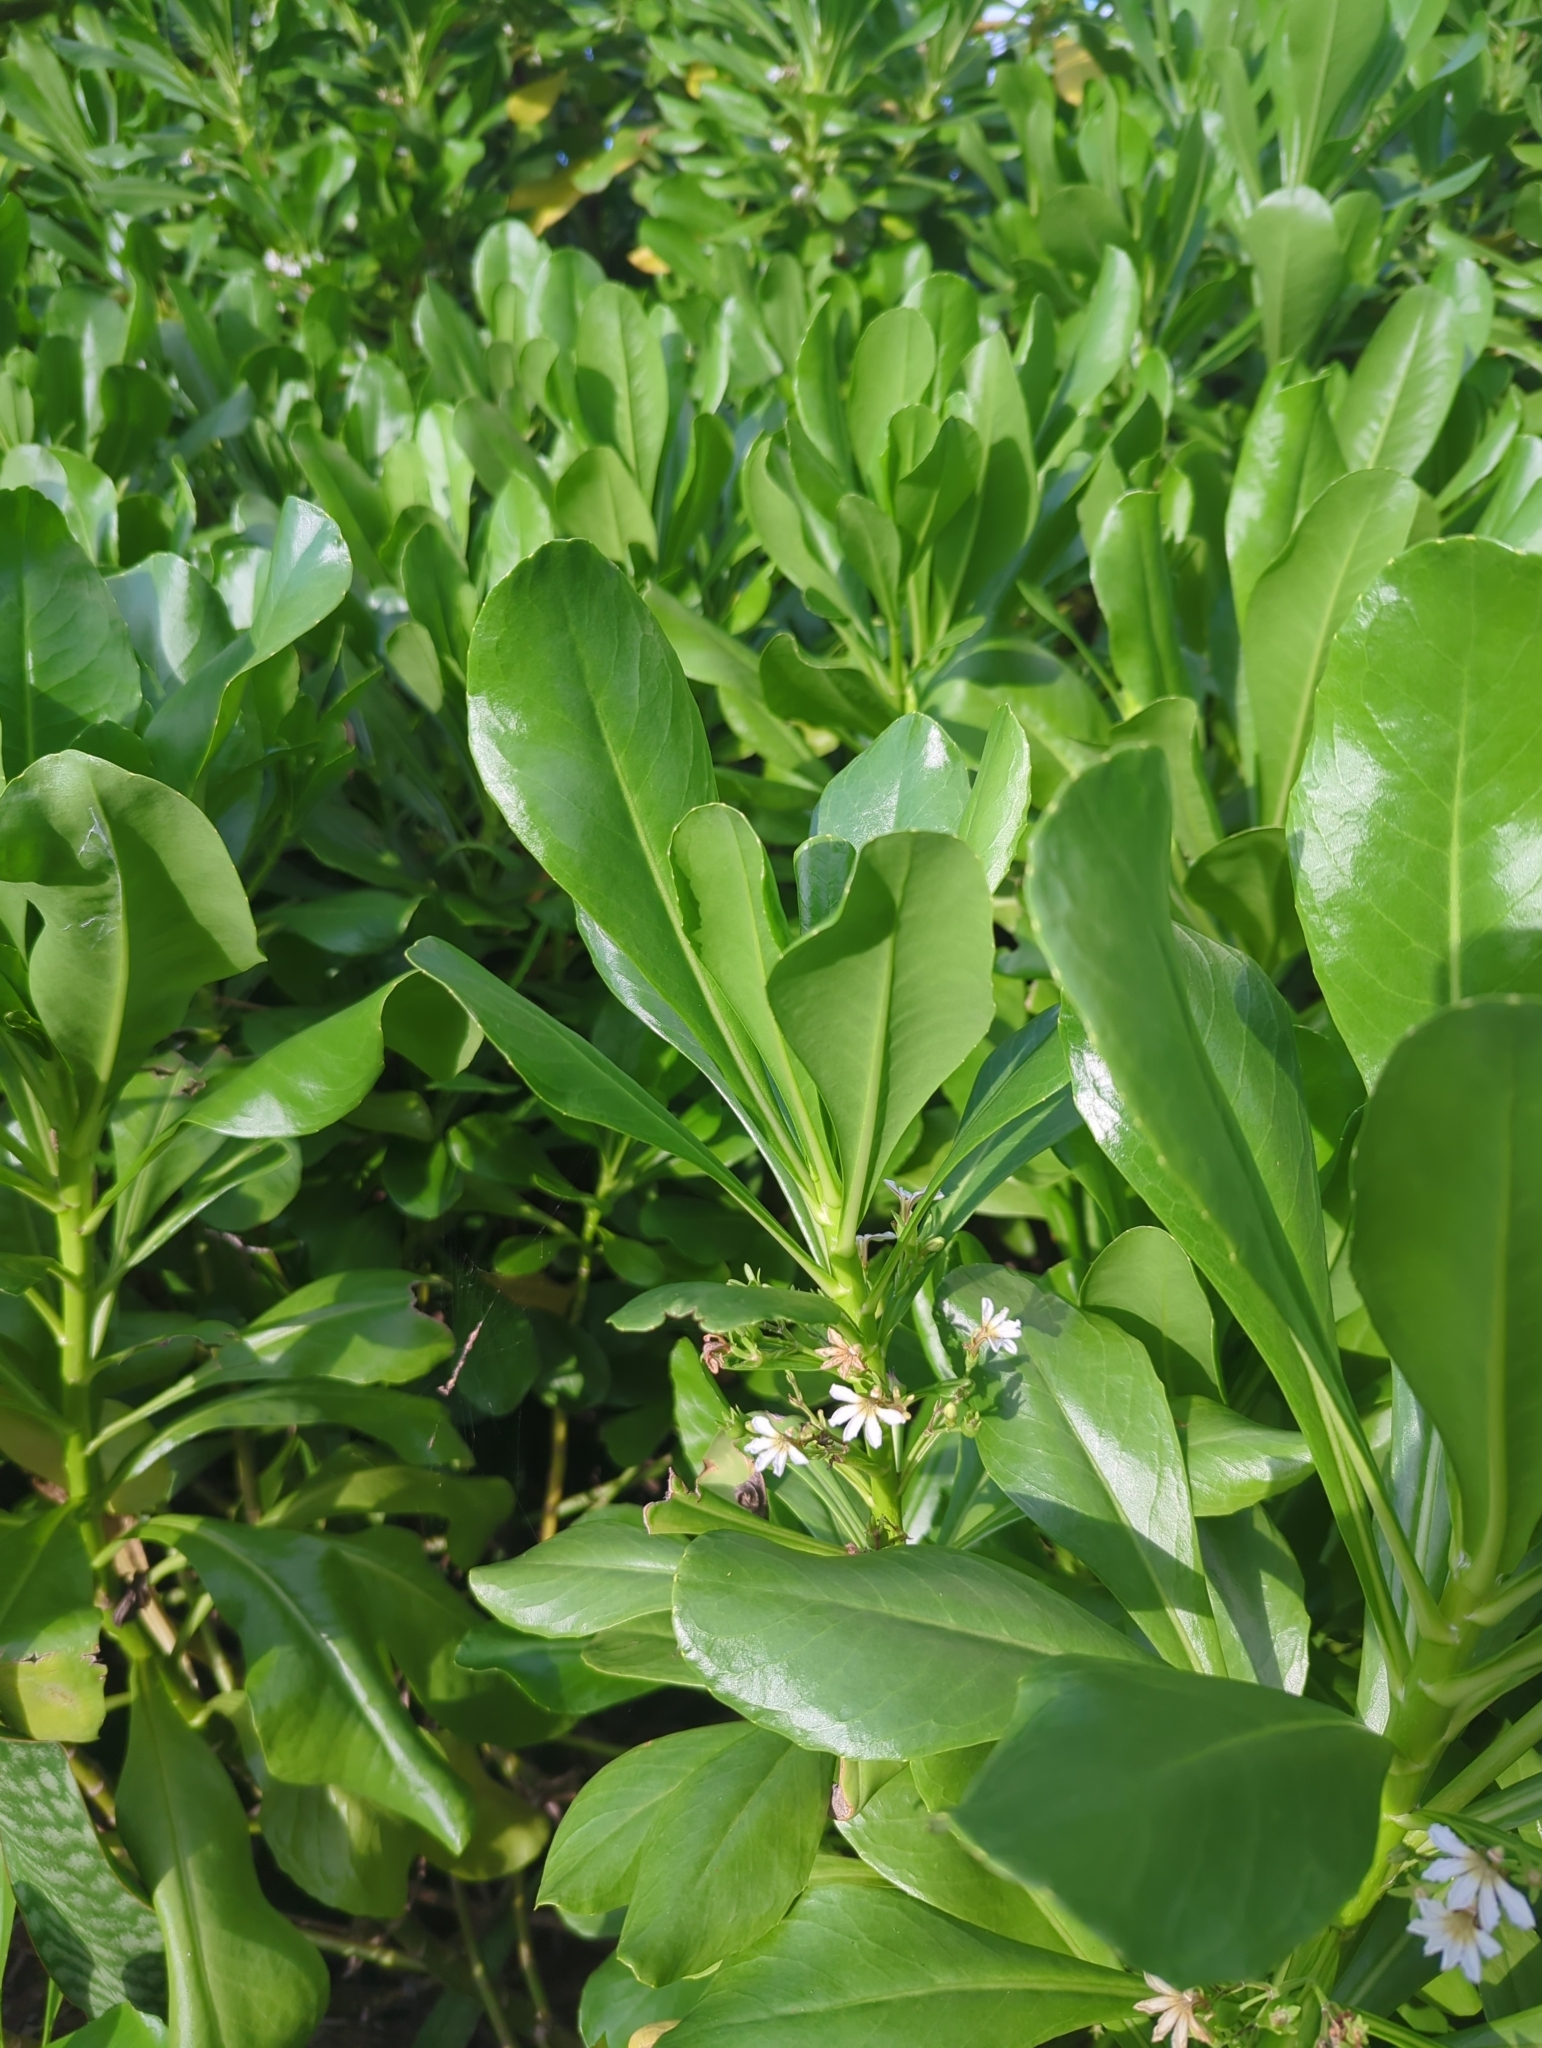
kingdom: Plantae
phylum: Tracheophyta
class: Magnoliopsida
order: Asterales
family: Goodeniaceae
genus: Scaevola
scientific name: Scaevola taccada
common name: Sea lettucetree
